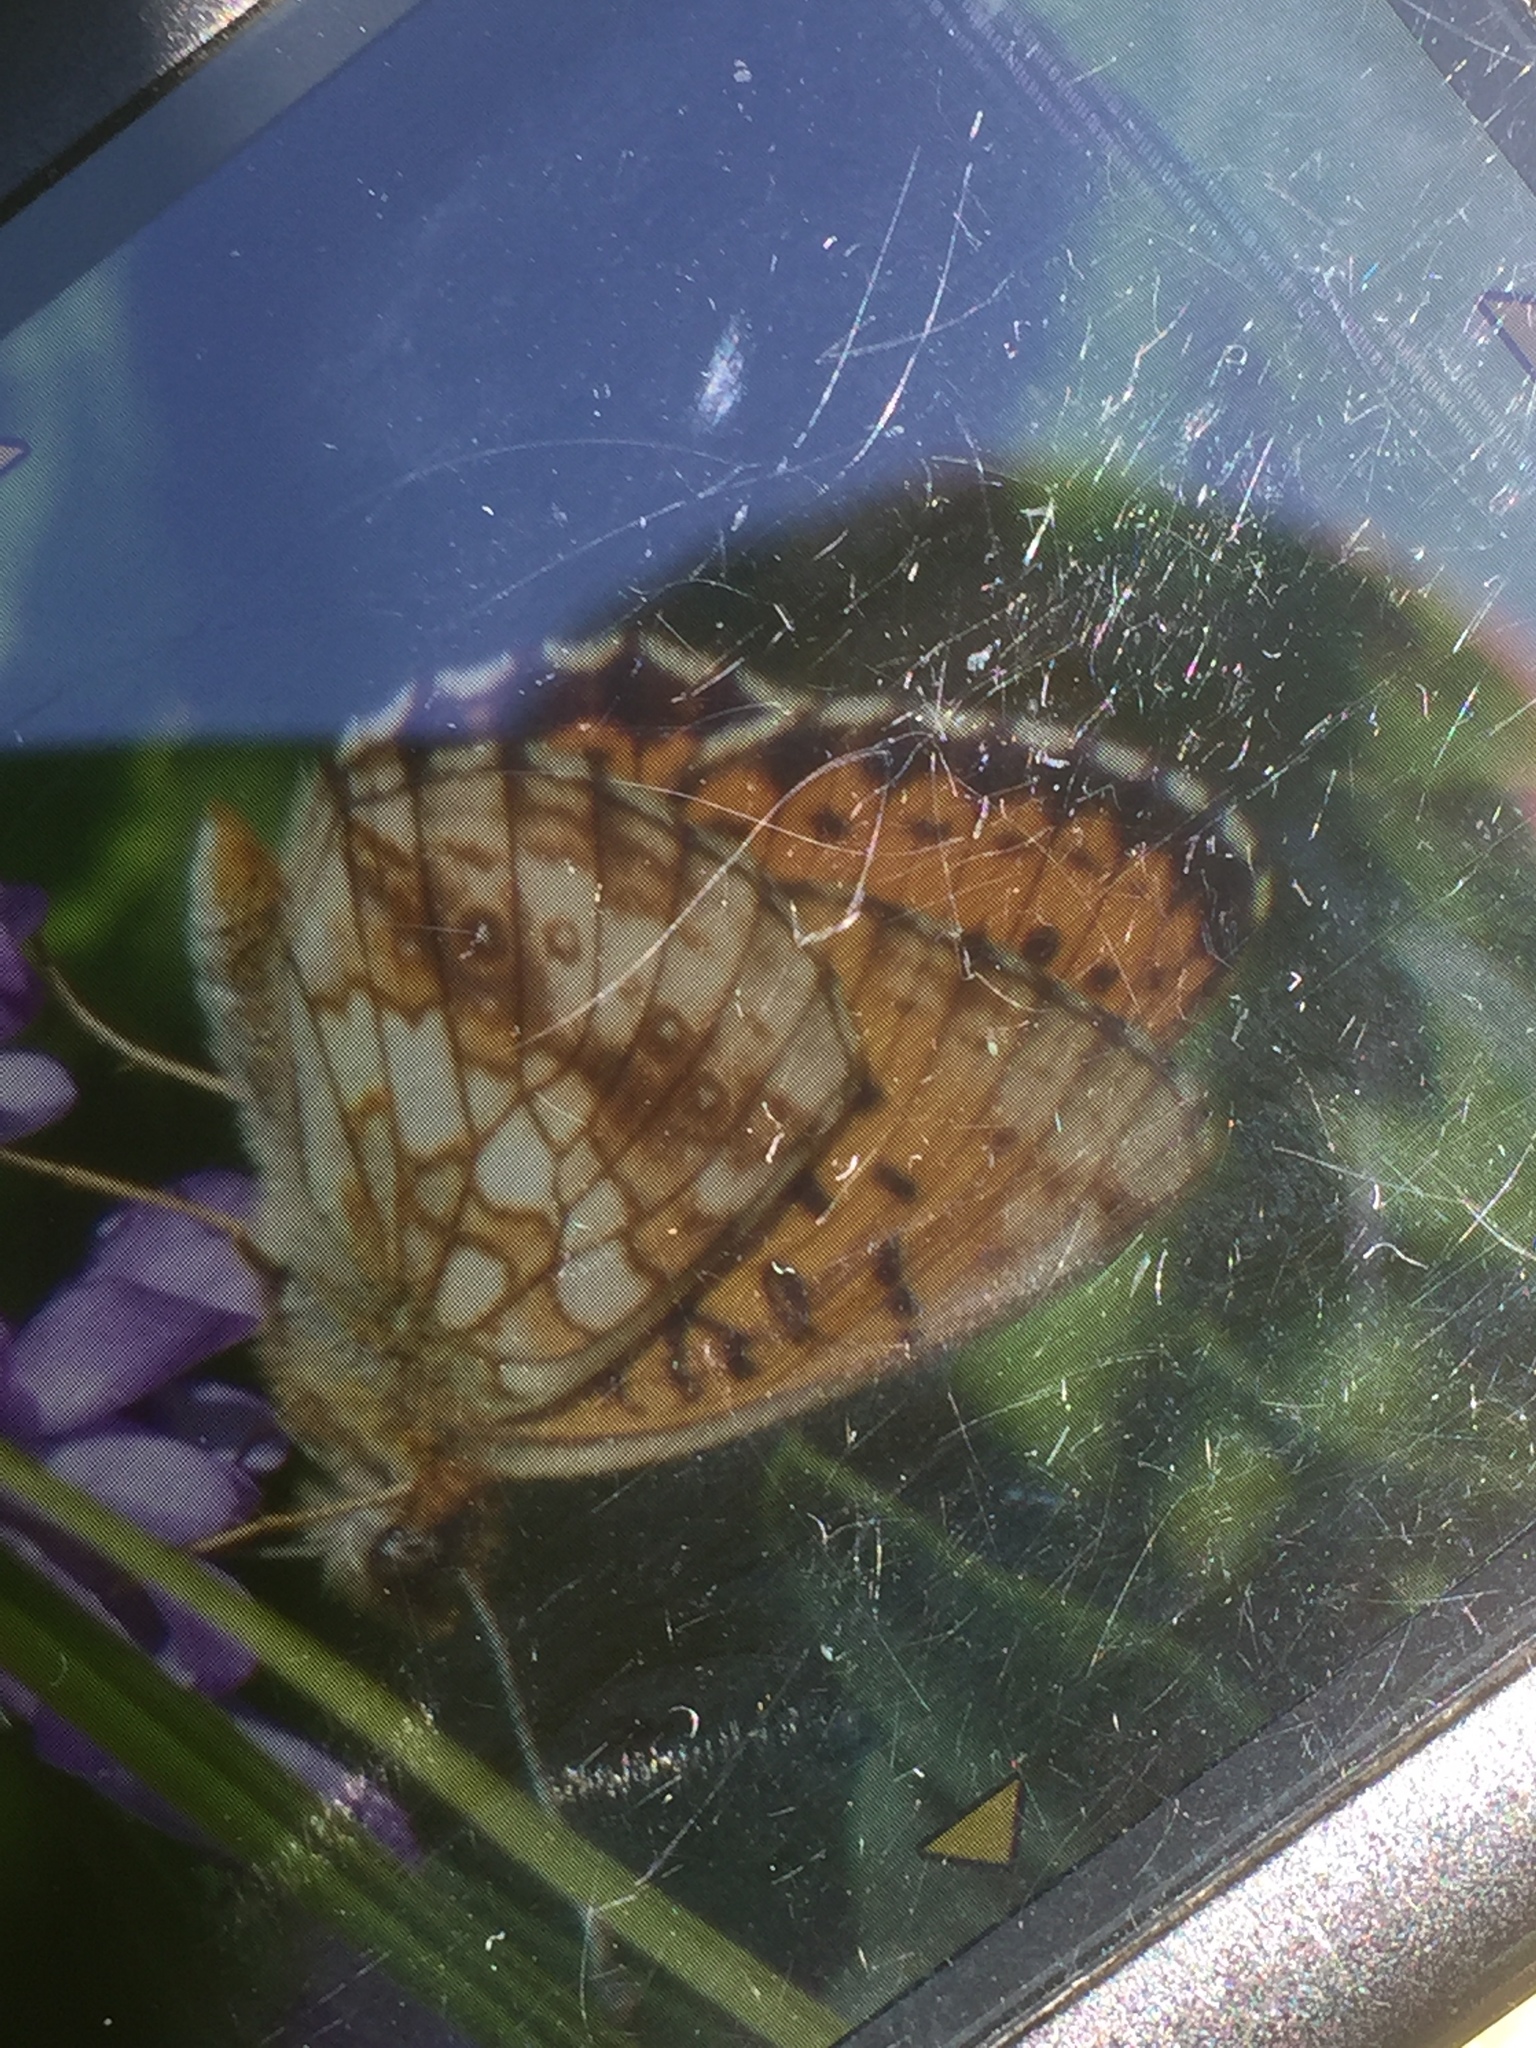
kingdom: Animalia
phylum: Arthropoda
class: Insecta
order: Lepidoptera
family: Nymphalidae
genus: Brenthis
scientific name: Brenthis ino
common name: Lesser marbled fritillary
